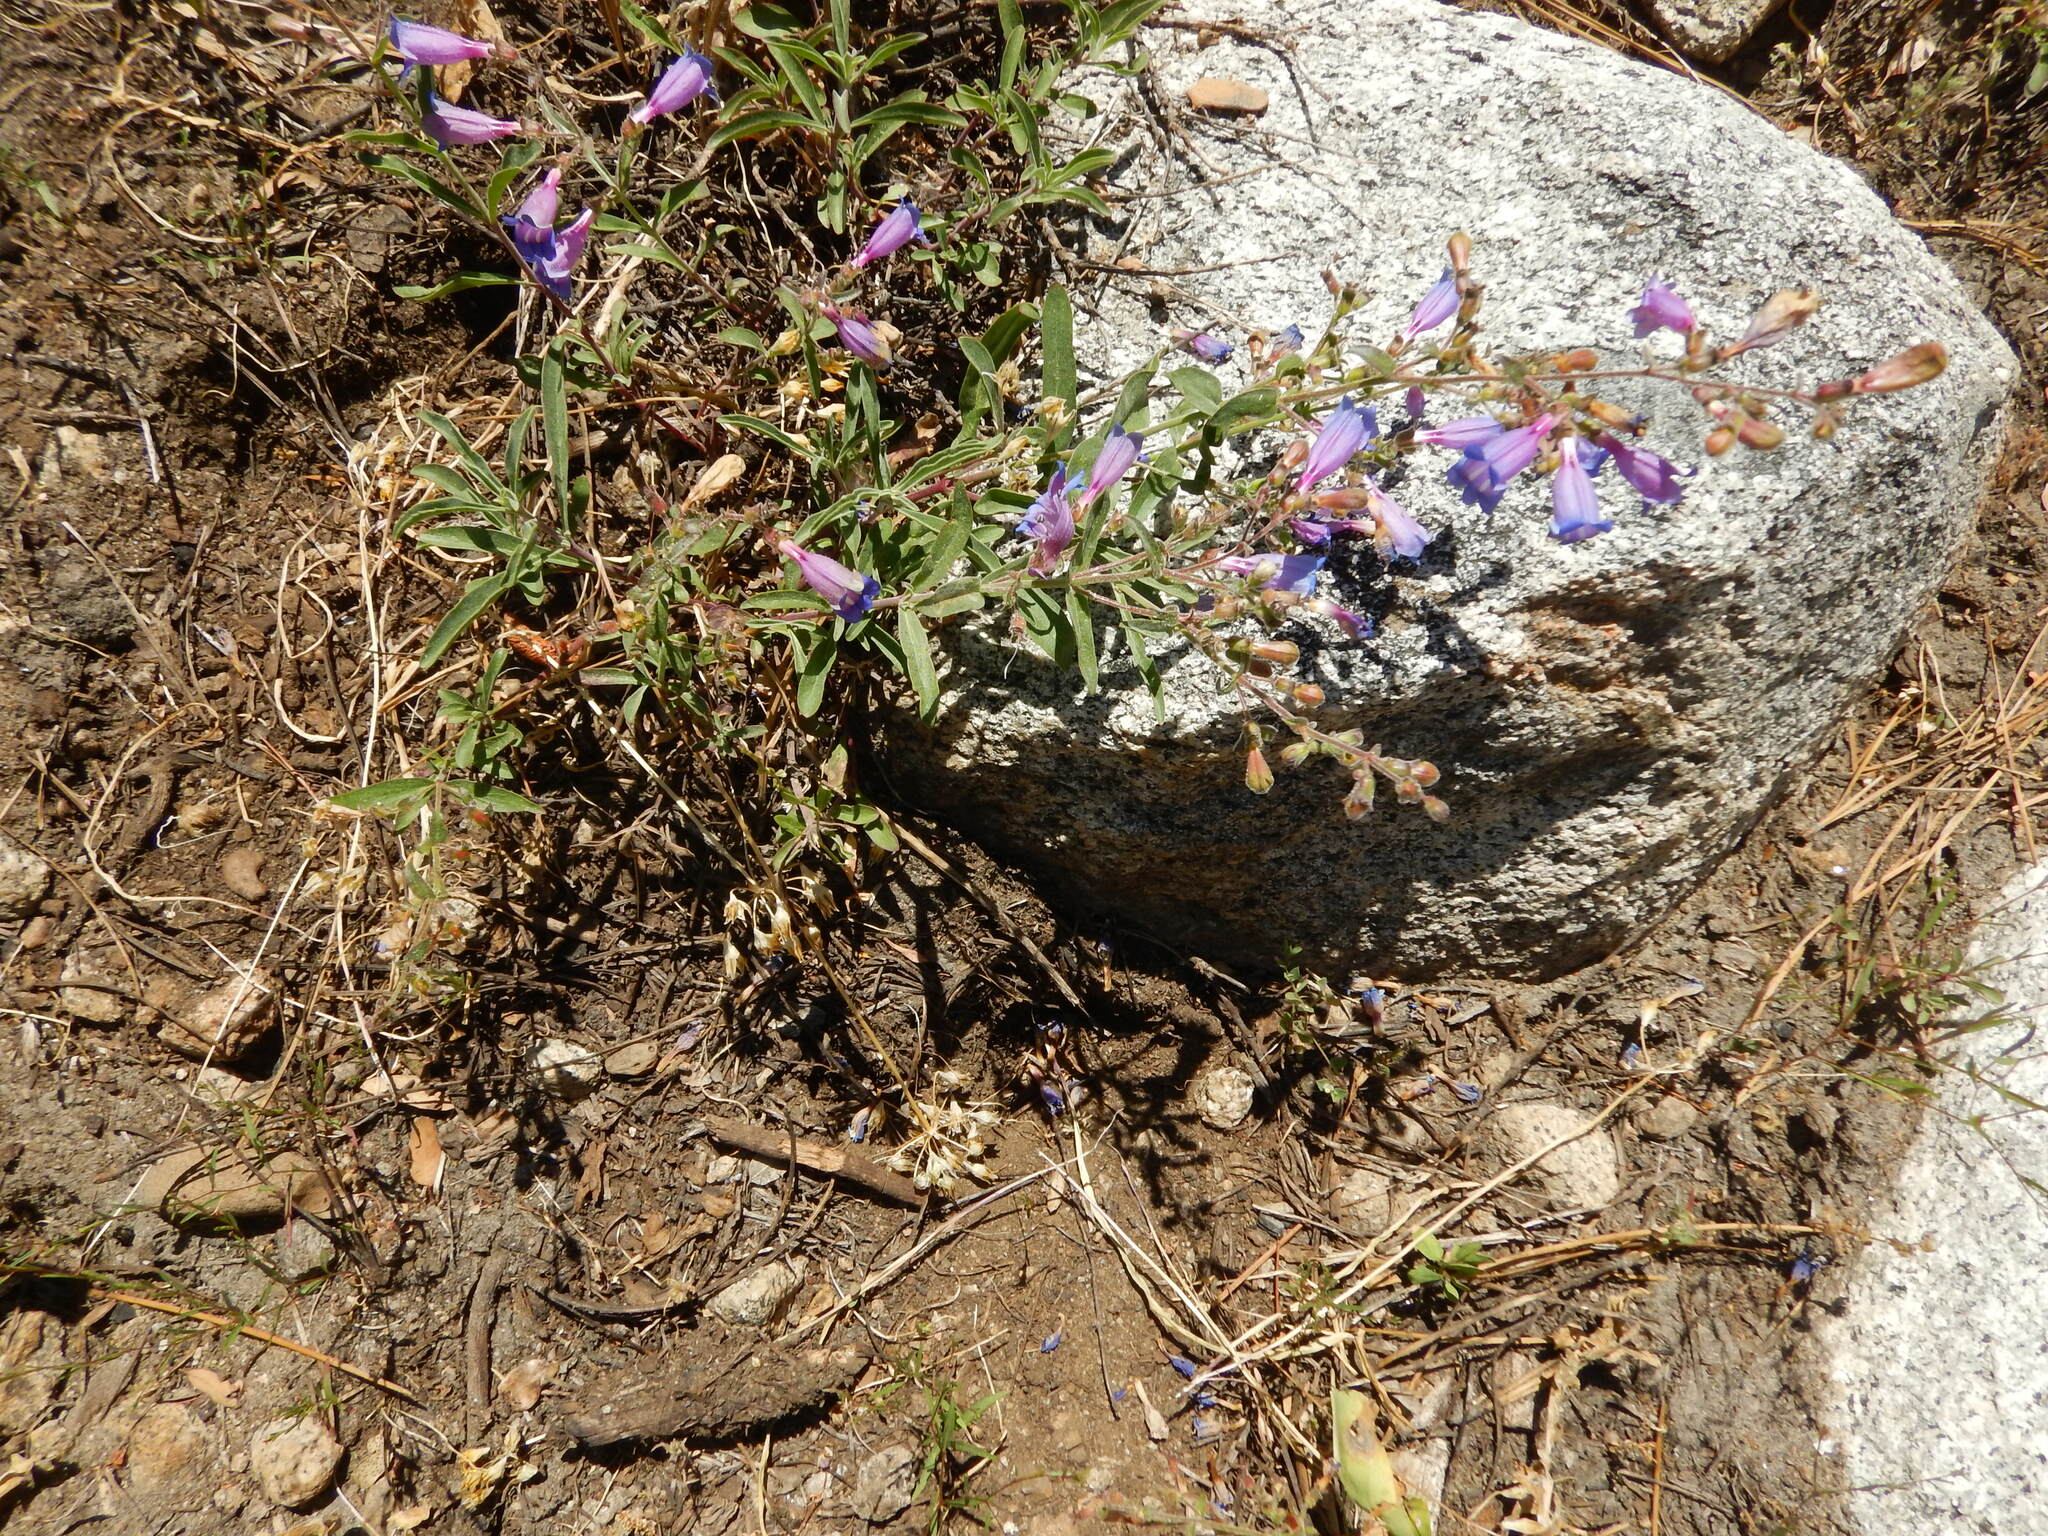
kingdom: Plantae
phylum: Tracheophyta
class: Magnoliopsida
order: Lamiales
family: Plantaginaceae
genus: Penstemon
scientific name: Penstemon laetus
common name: Gay penstemon
